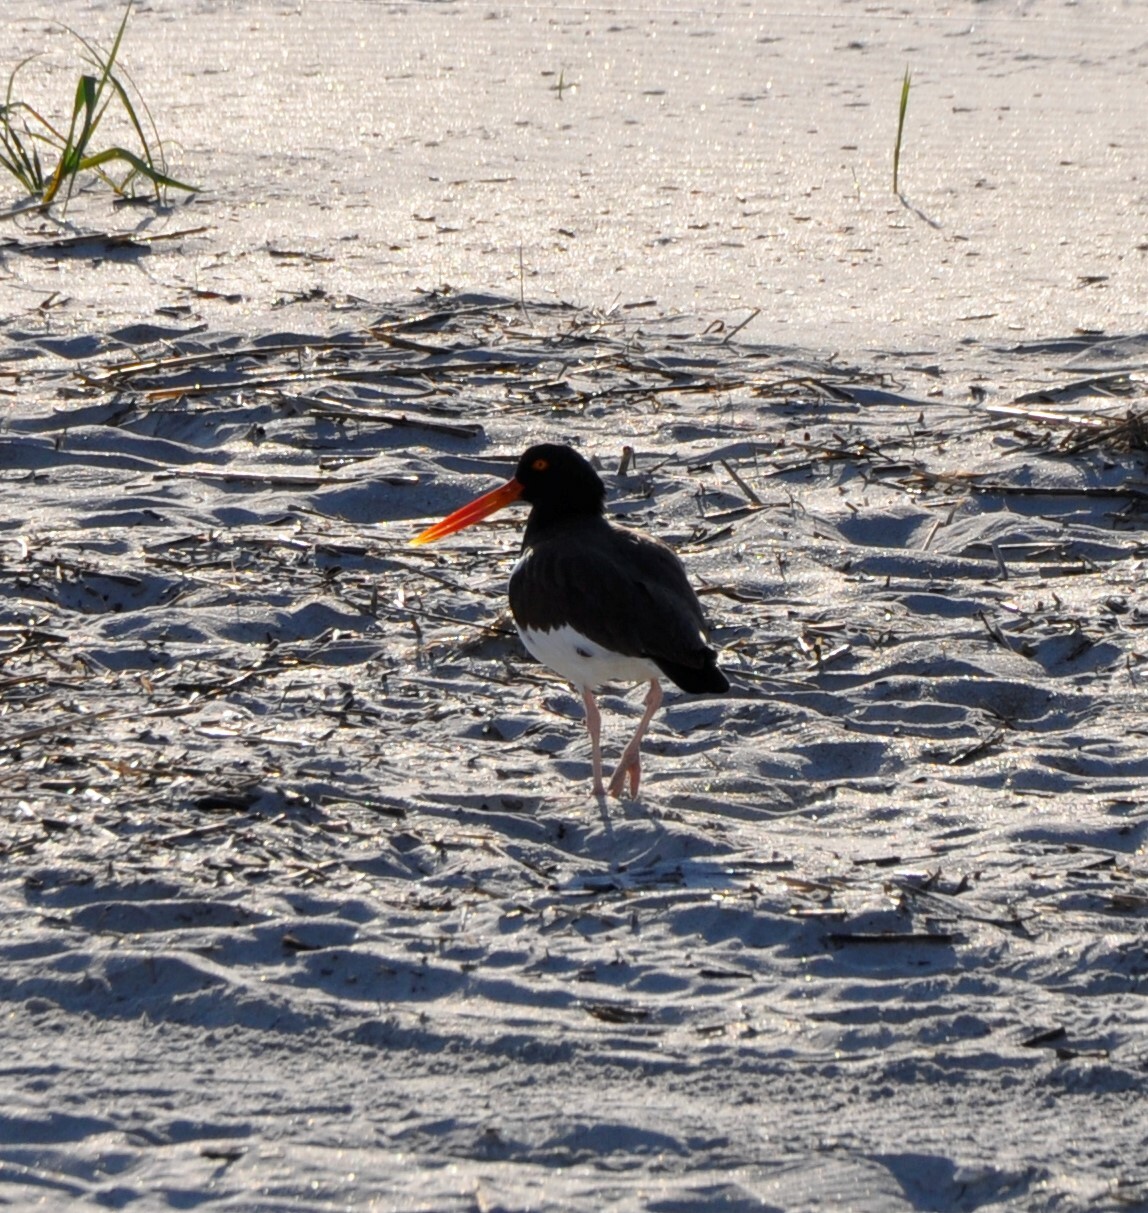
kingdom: Animalia
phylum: Chordata
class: Aves
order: Charadriiformes
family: Haematopodidae
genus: Haematopus
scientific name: Haematopus palliatus
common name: American oystercatcher
